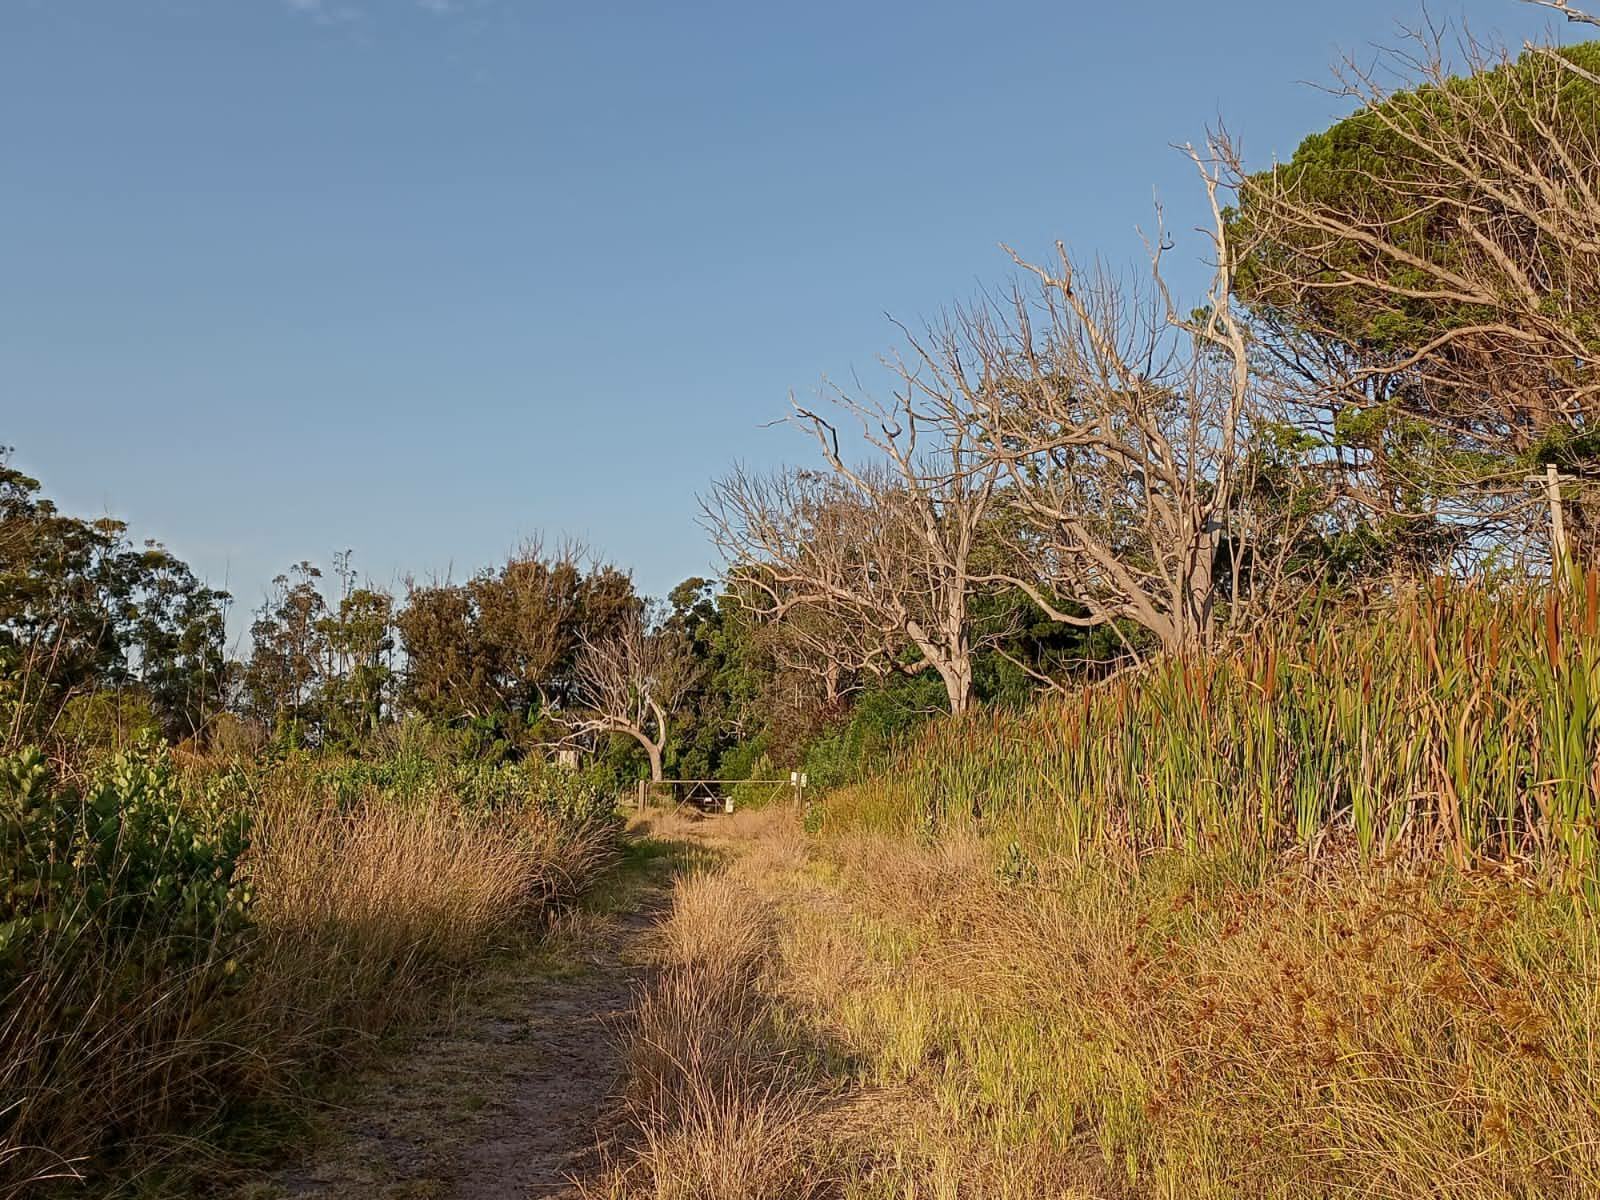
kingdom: Plantae
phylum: Tracheophyta
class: Liliopsida
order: Poales
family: Cyperaceae
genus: Cyperus
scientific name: Cyperus polystachyos
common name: Bunchy flat sedge
